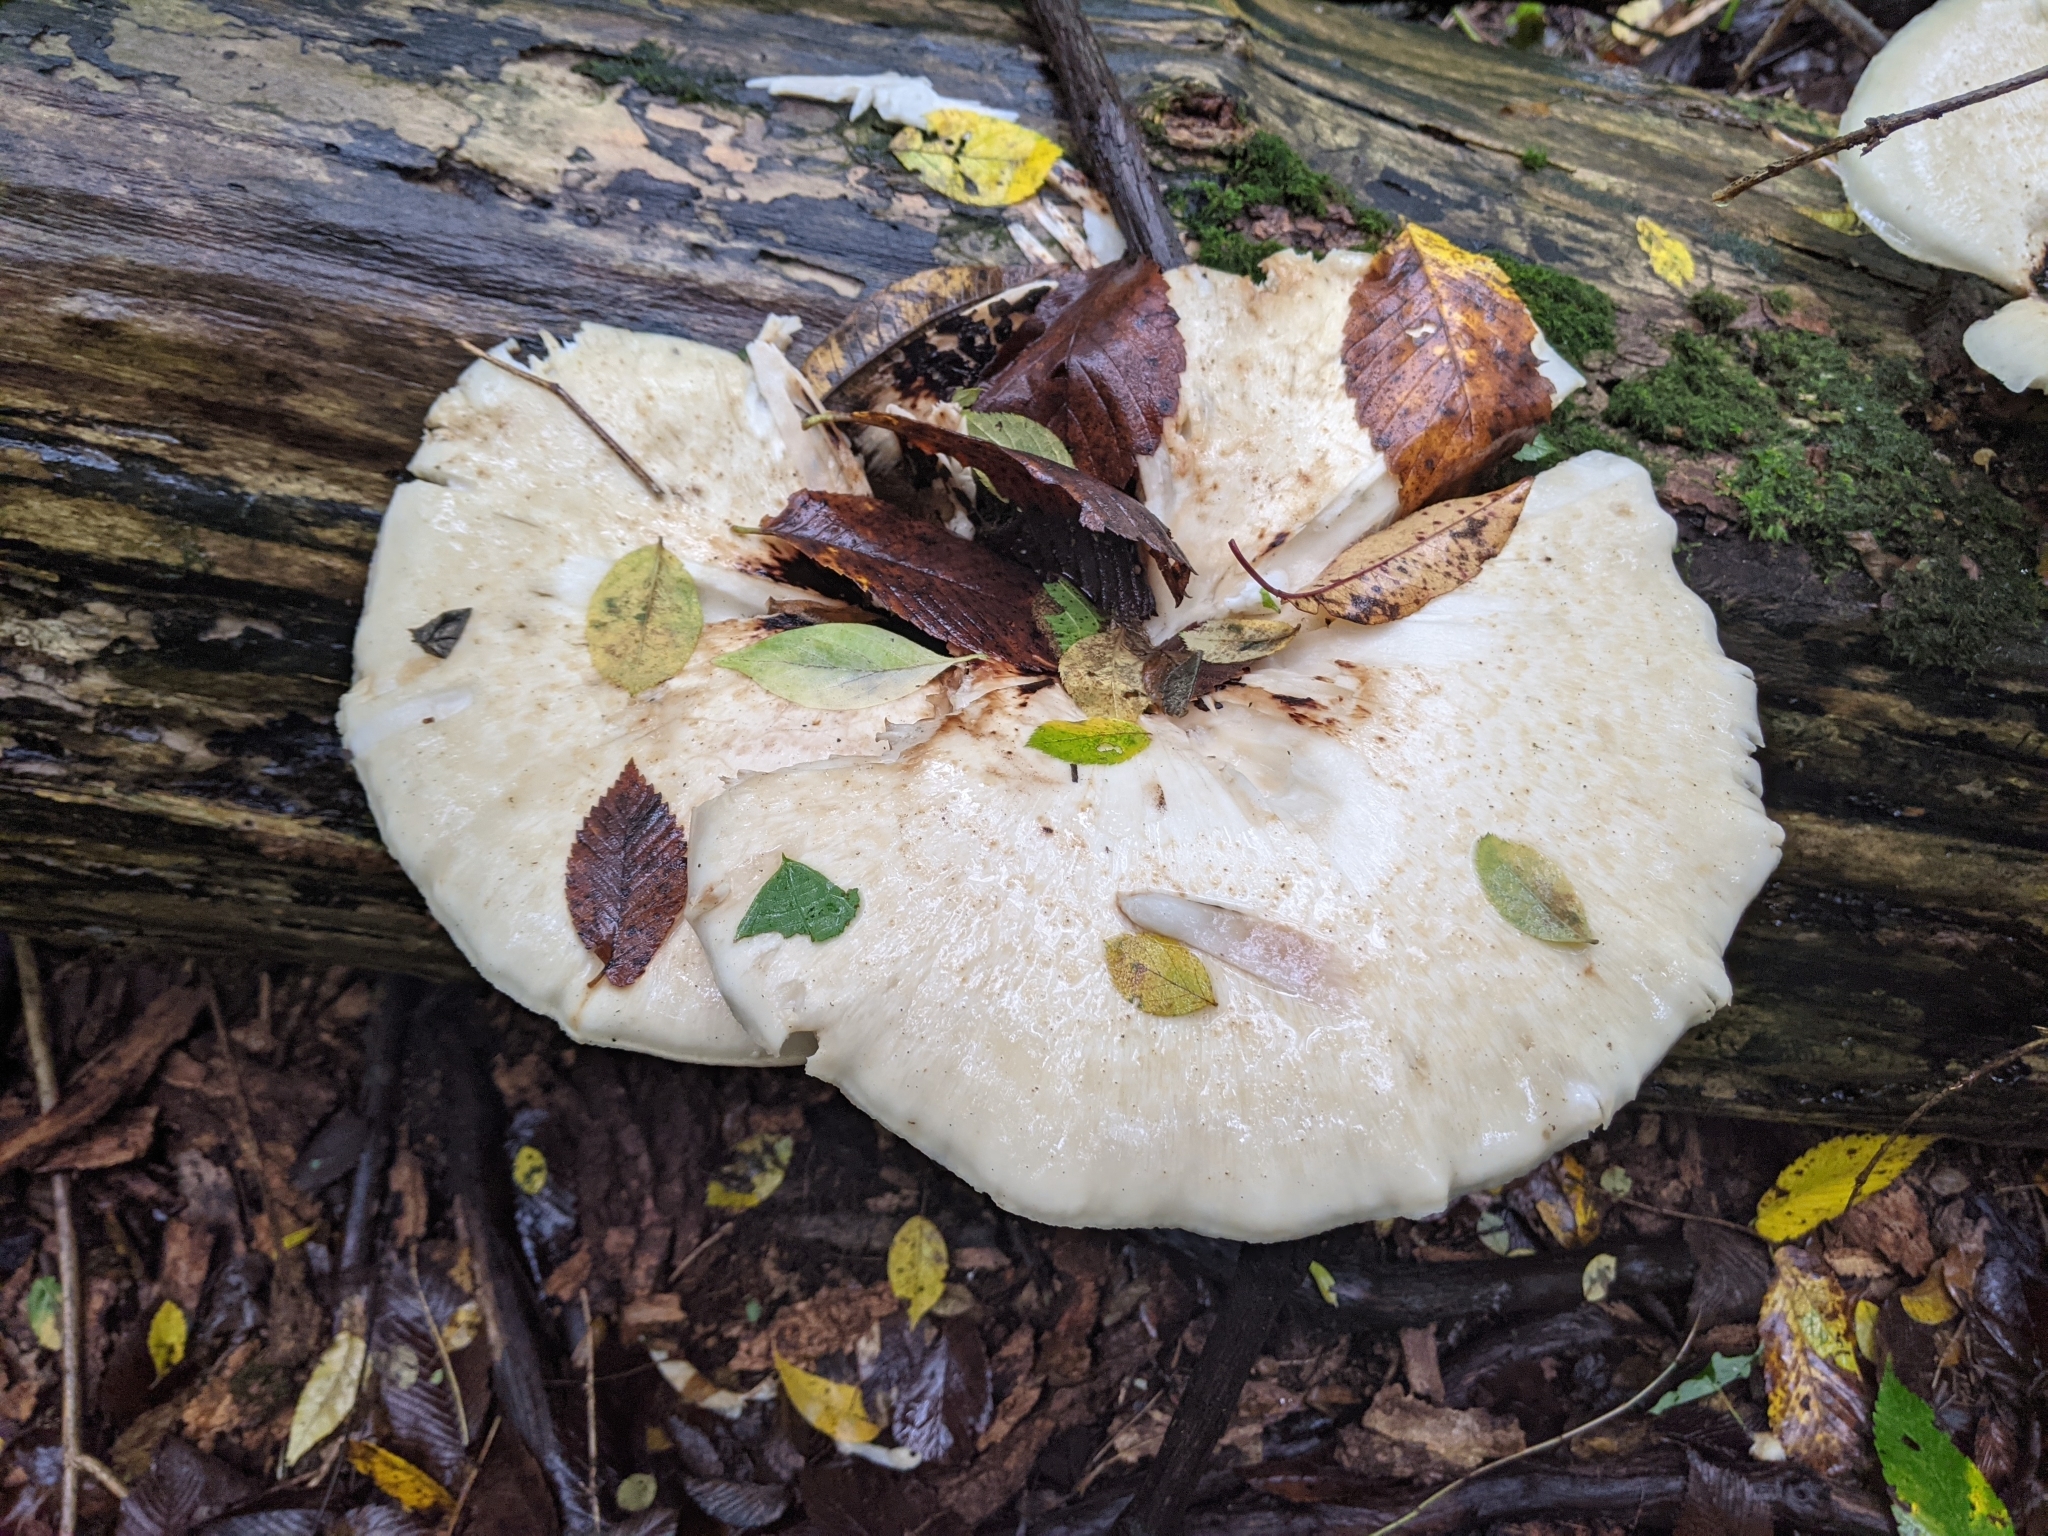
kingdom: Fungi
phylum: Basidiomycota
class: Agaricomycetes
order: Polyporales
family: Polyporaceae
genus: Cerioporus
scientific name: Cerioporus squamosus
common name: Dryad's saddle
